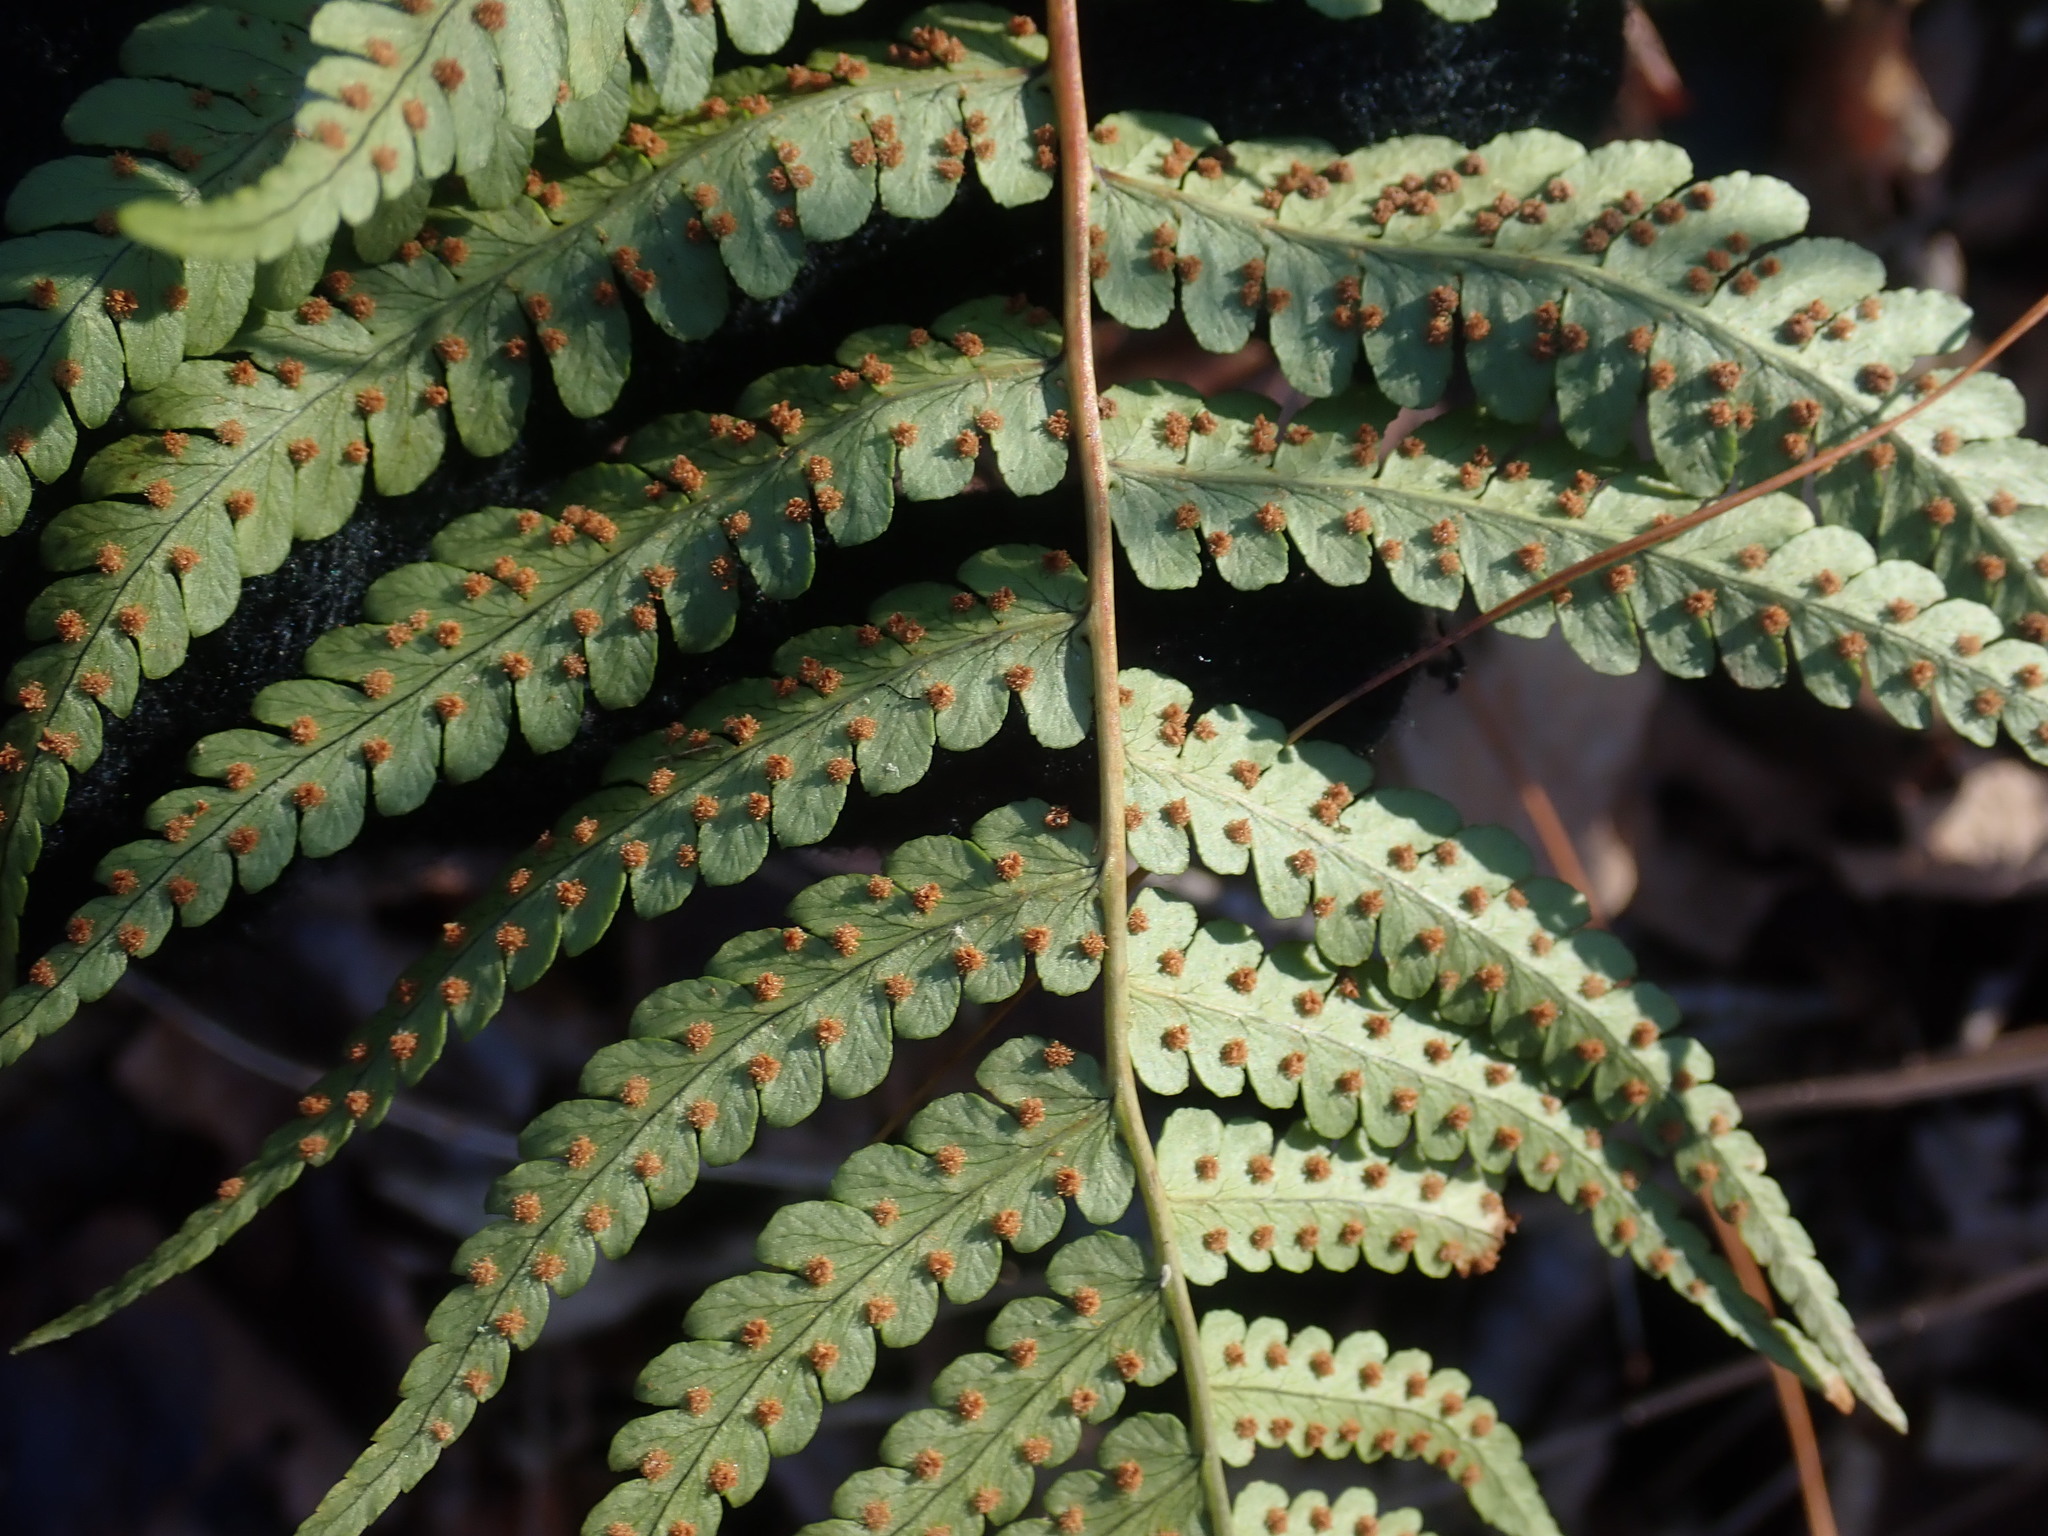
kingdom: Plantae
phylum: Tracheophyta
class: Polypodiopsida
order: Polypodiales
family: Dryopteridaceae
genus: Dryopteris
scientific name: Dryopteris marginalis
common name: Marginal wood fern
